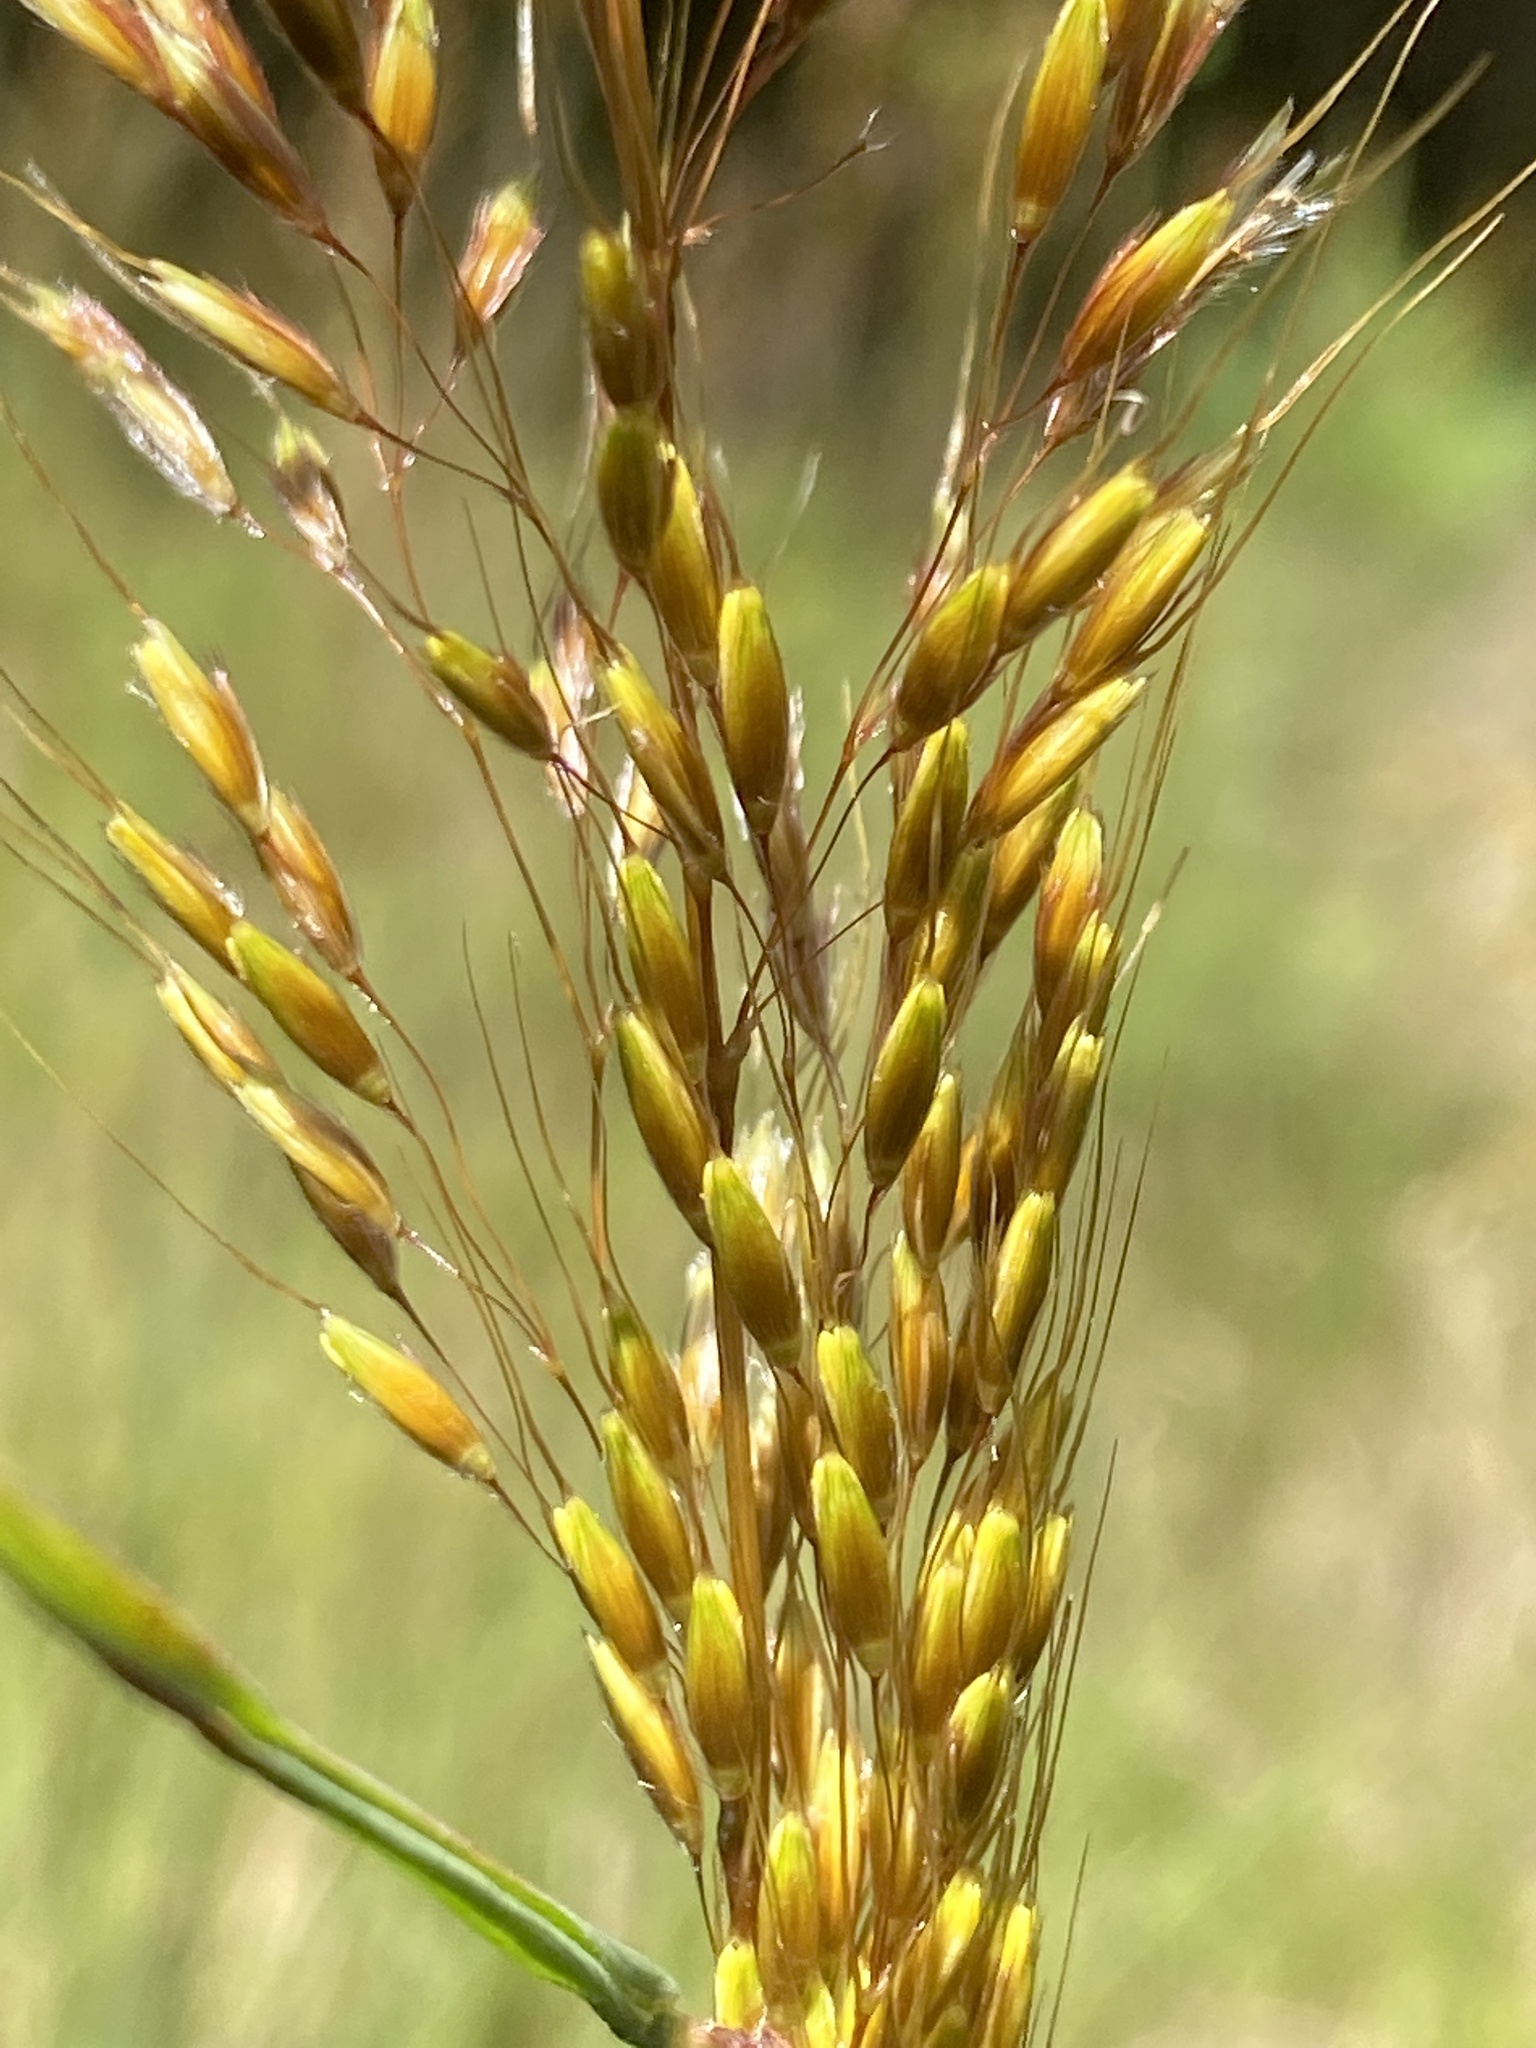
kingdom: Plantae
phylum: Tracheophyta
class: Liliopsida
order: Poales
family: Poaceae
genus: Sorghastrum
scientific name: Sorghastrum nutans
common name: Indian grass
